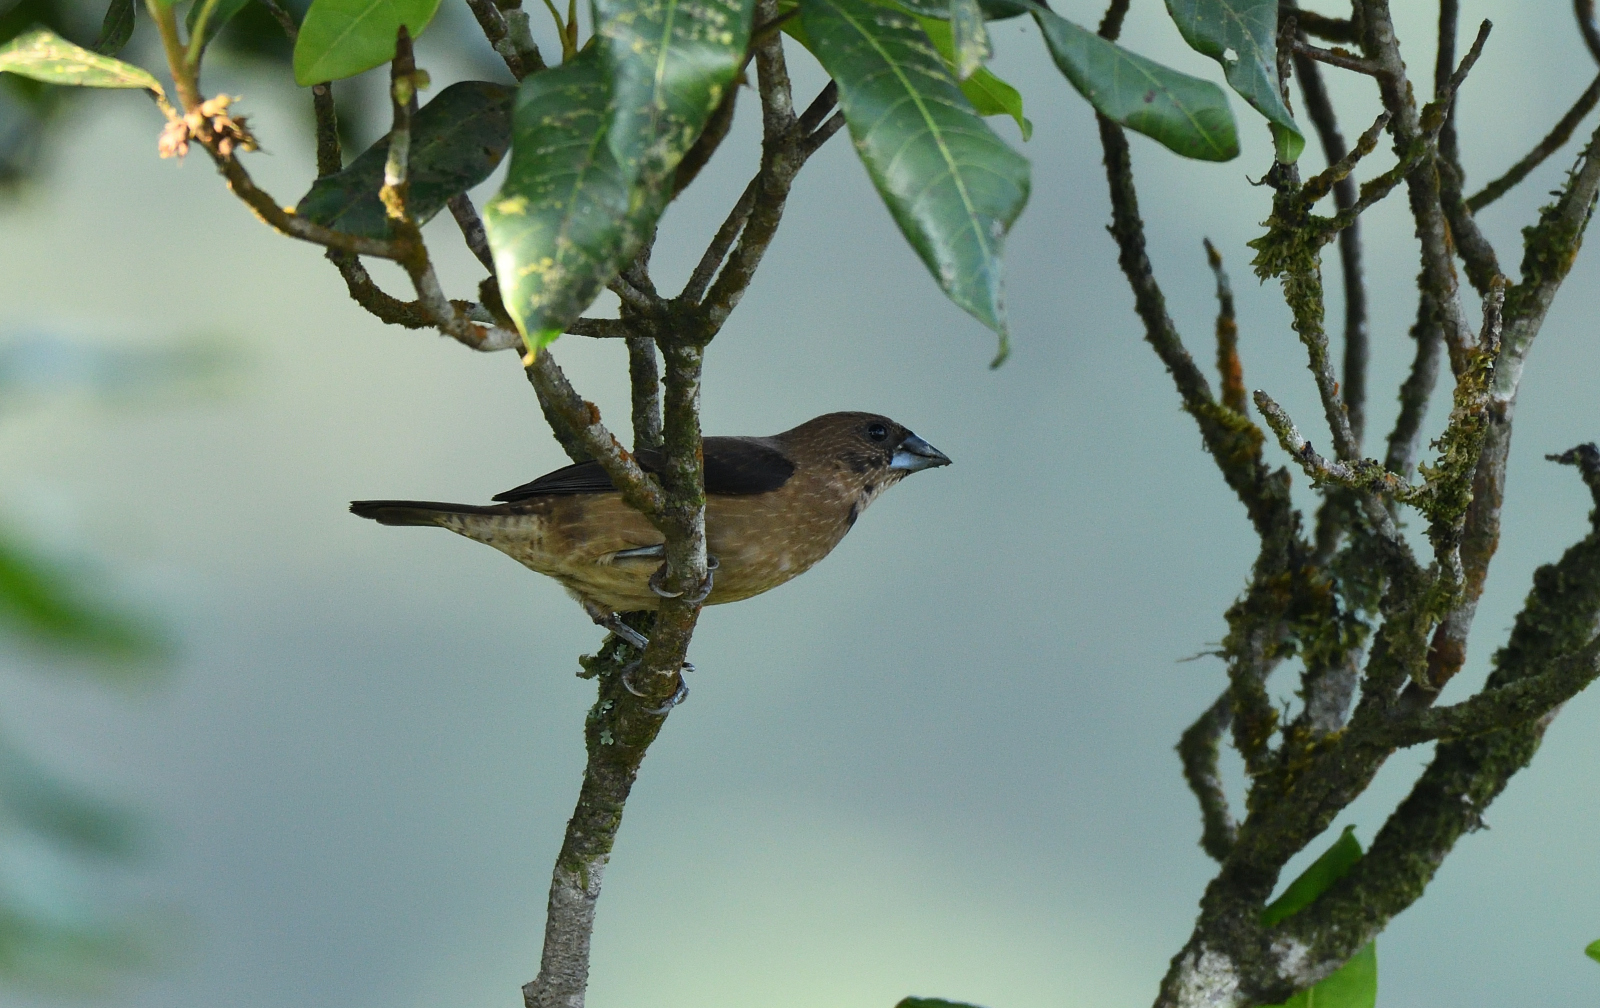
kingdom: Animalia
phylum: Chordata
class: Aves
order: Passeriformes
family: Estrildidae
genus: Lonchura
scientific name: Lonchura kelaarti
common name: Black-throated munia
